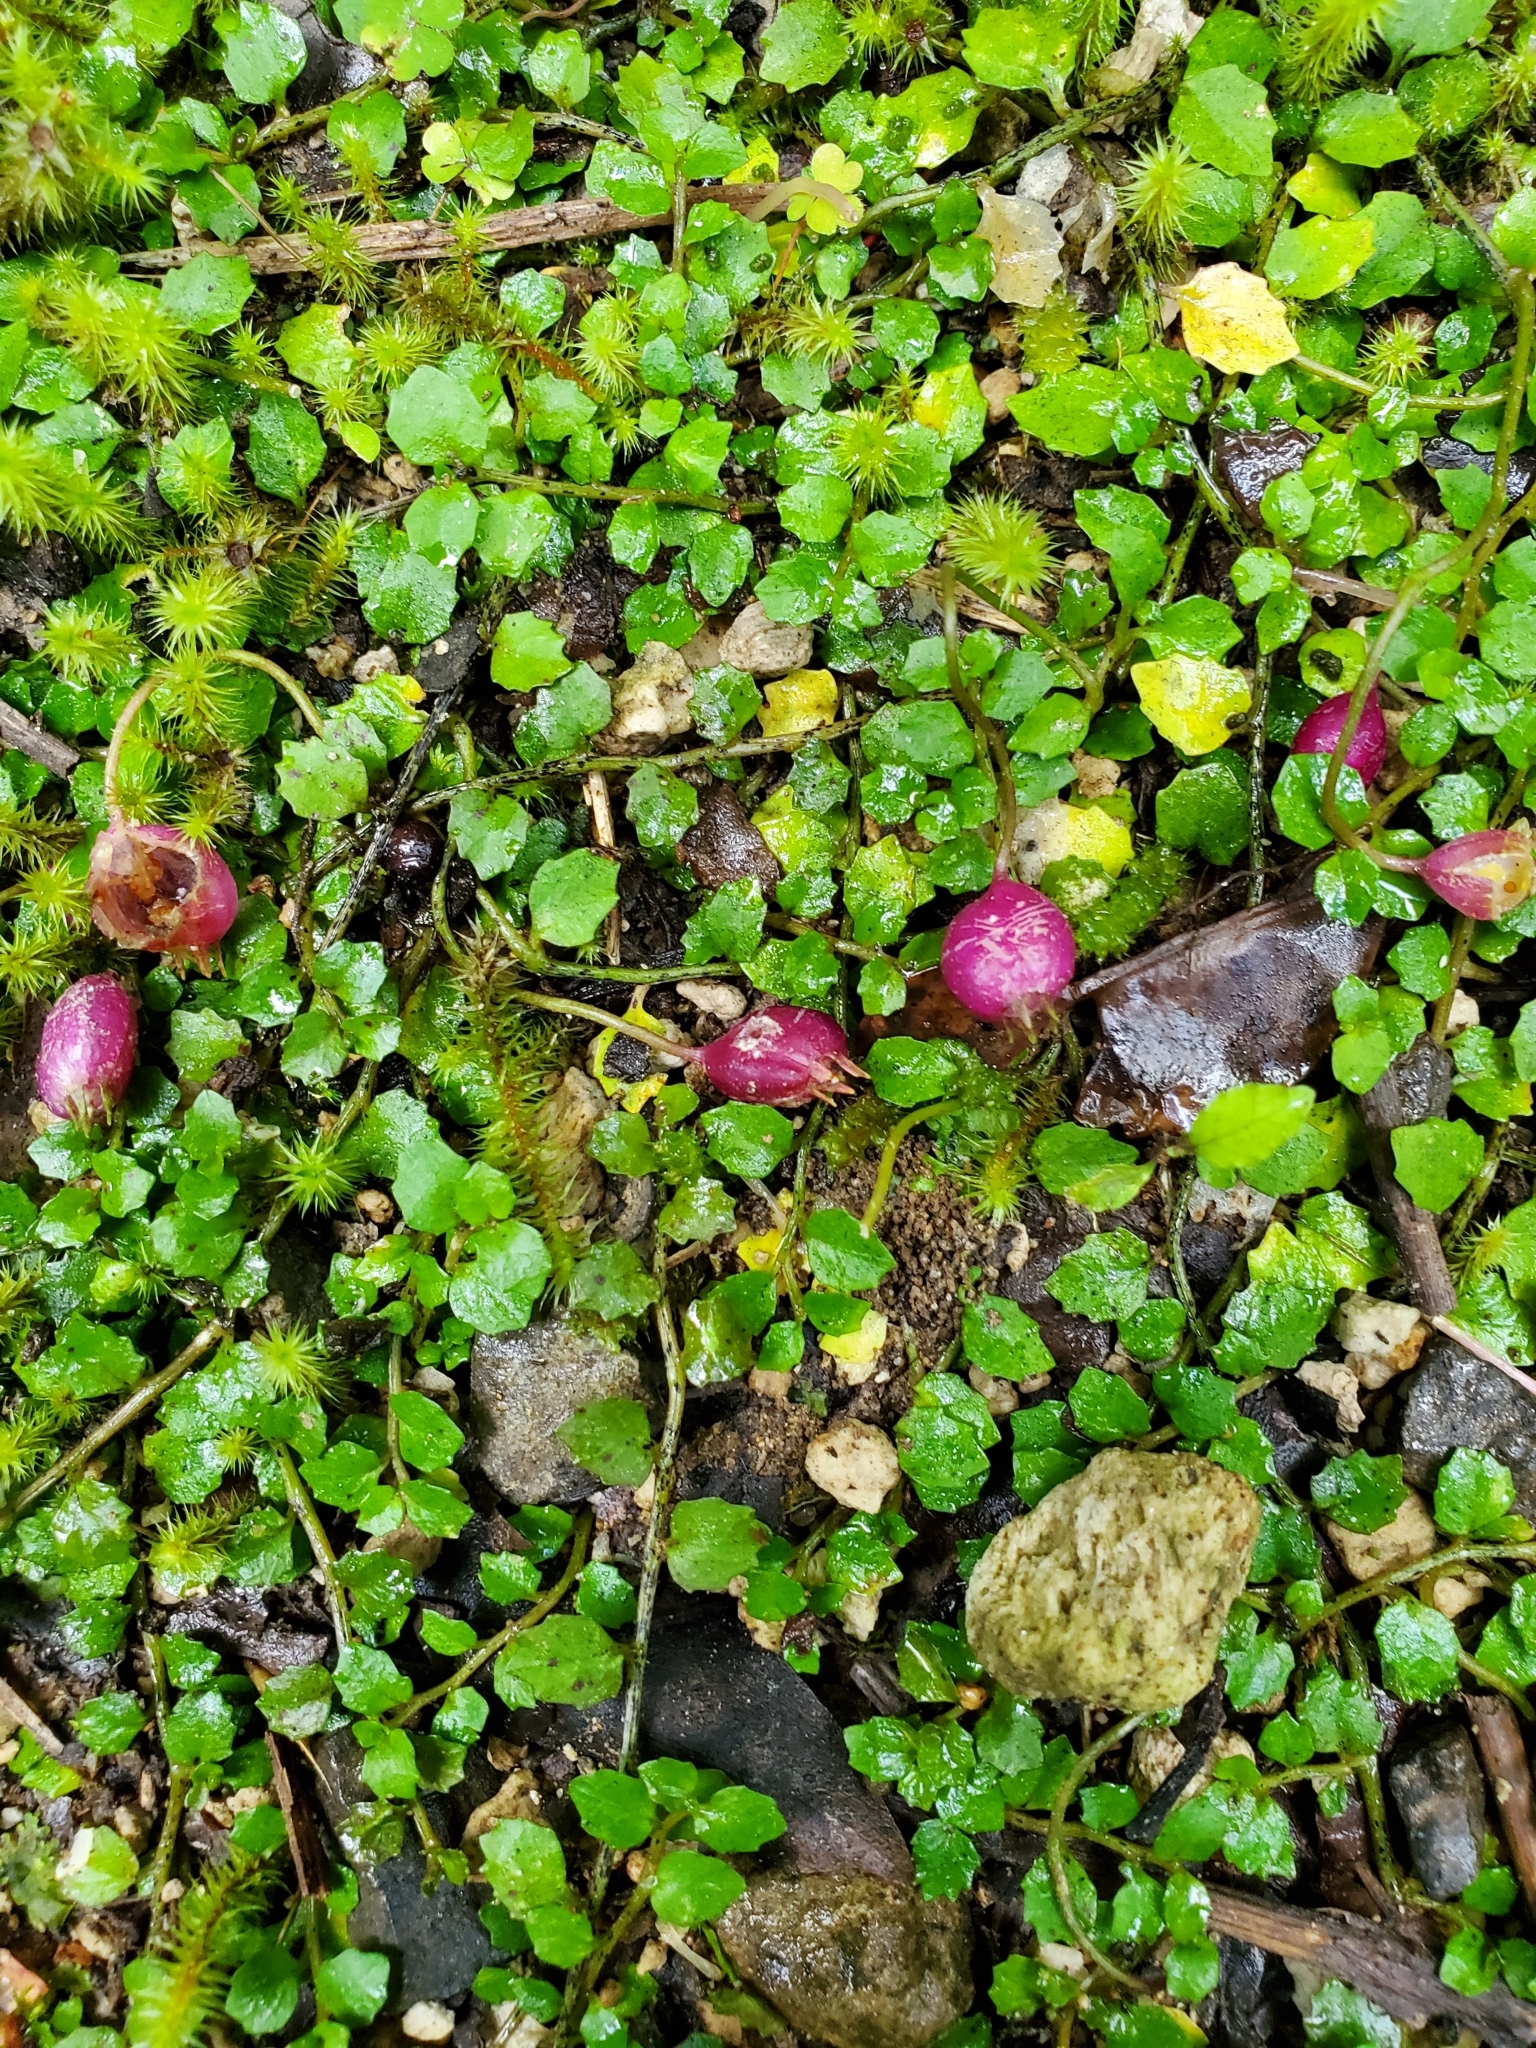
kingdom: Plantae
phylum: Tracheophyta
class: Magnoliopsida
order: Asterales
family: Campanulaceae
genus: Lobelia
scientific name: Lobelia angulata
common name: Lawn lobelia
